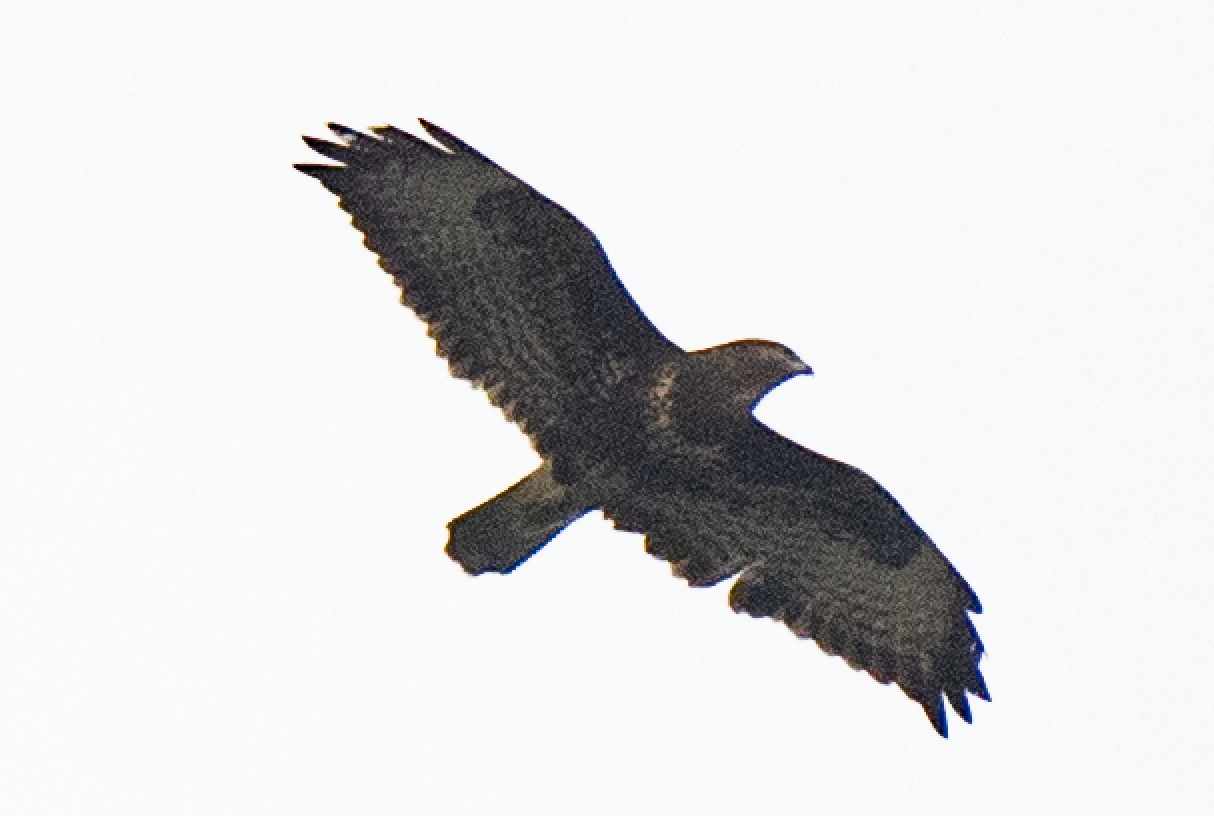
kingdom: Animalia
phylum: Chordata
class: Aves
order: Accipitriformes
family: Accipitridae
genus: Buteo
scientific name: Buteo buteo
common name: Common buzzard
